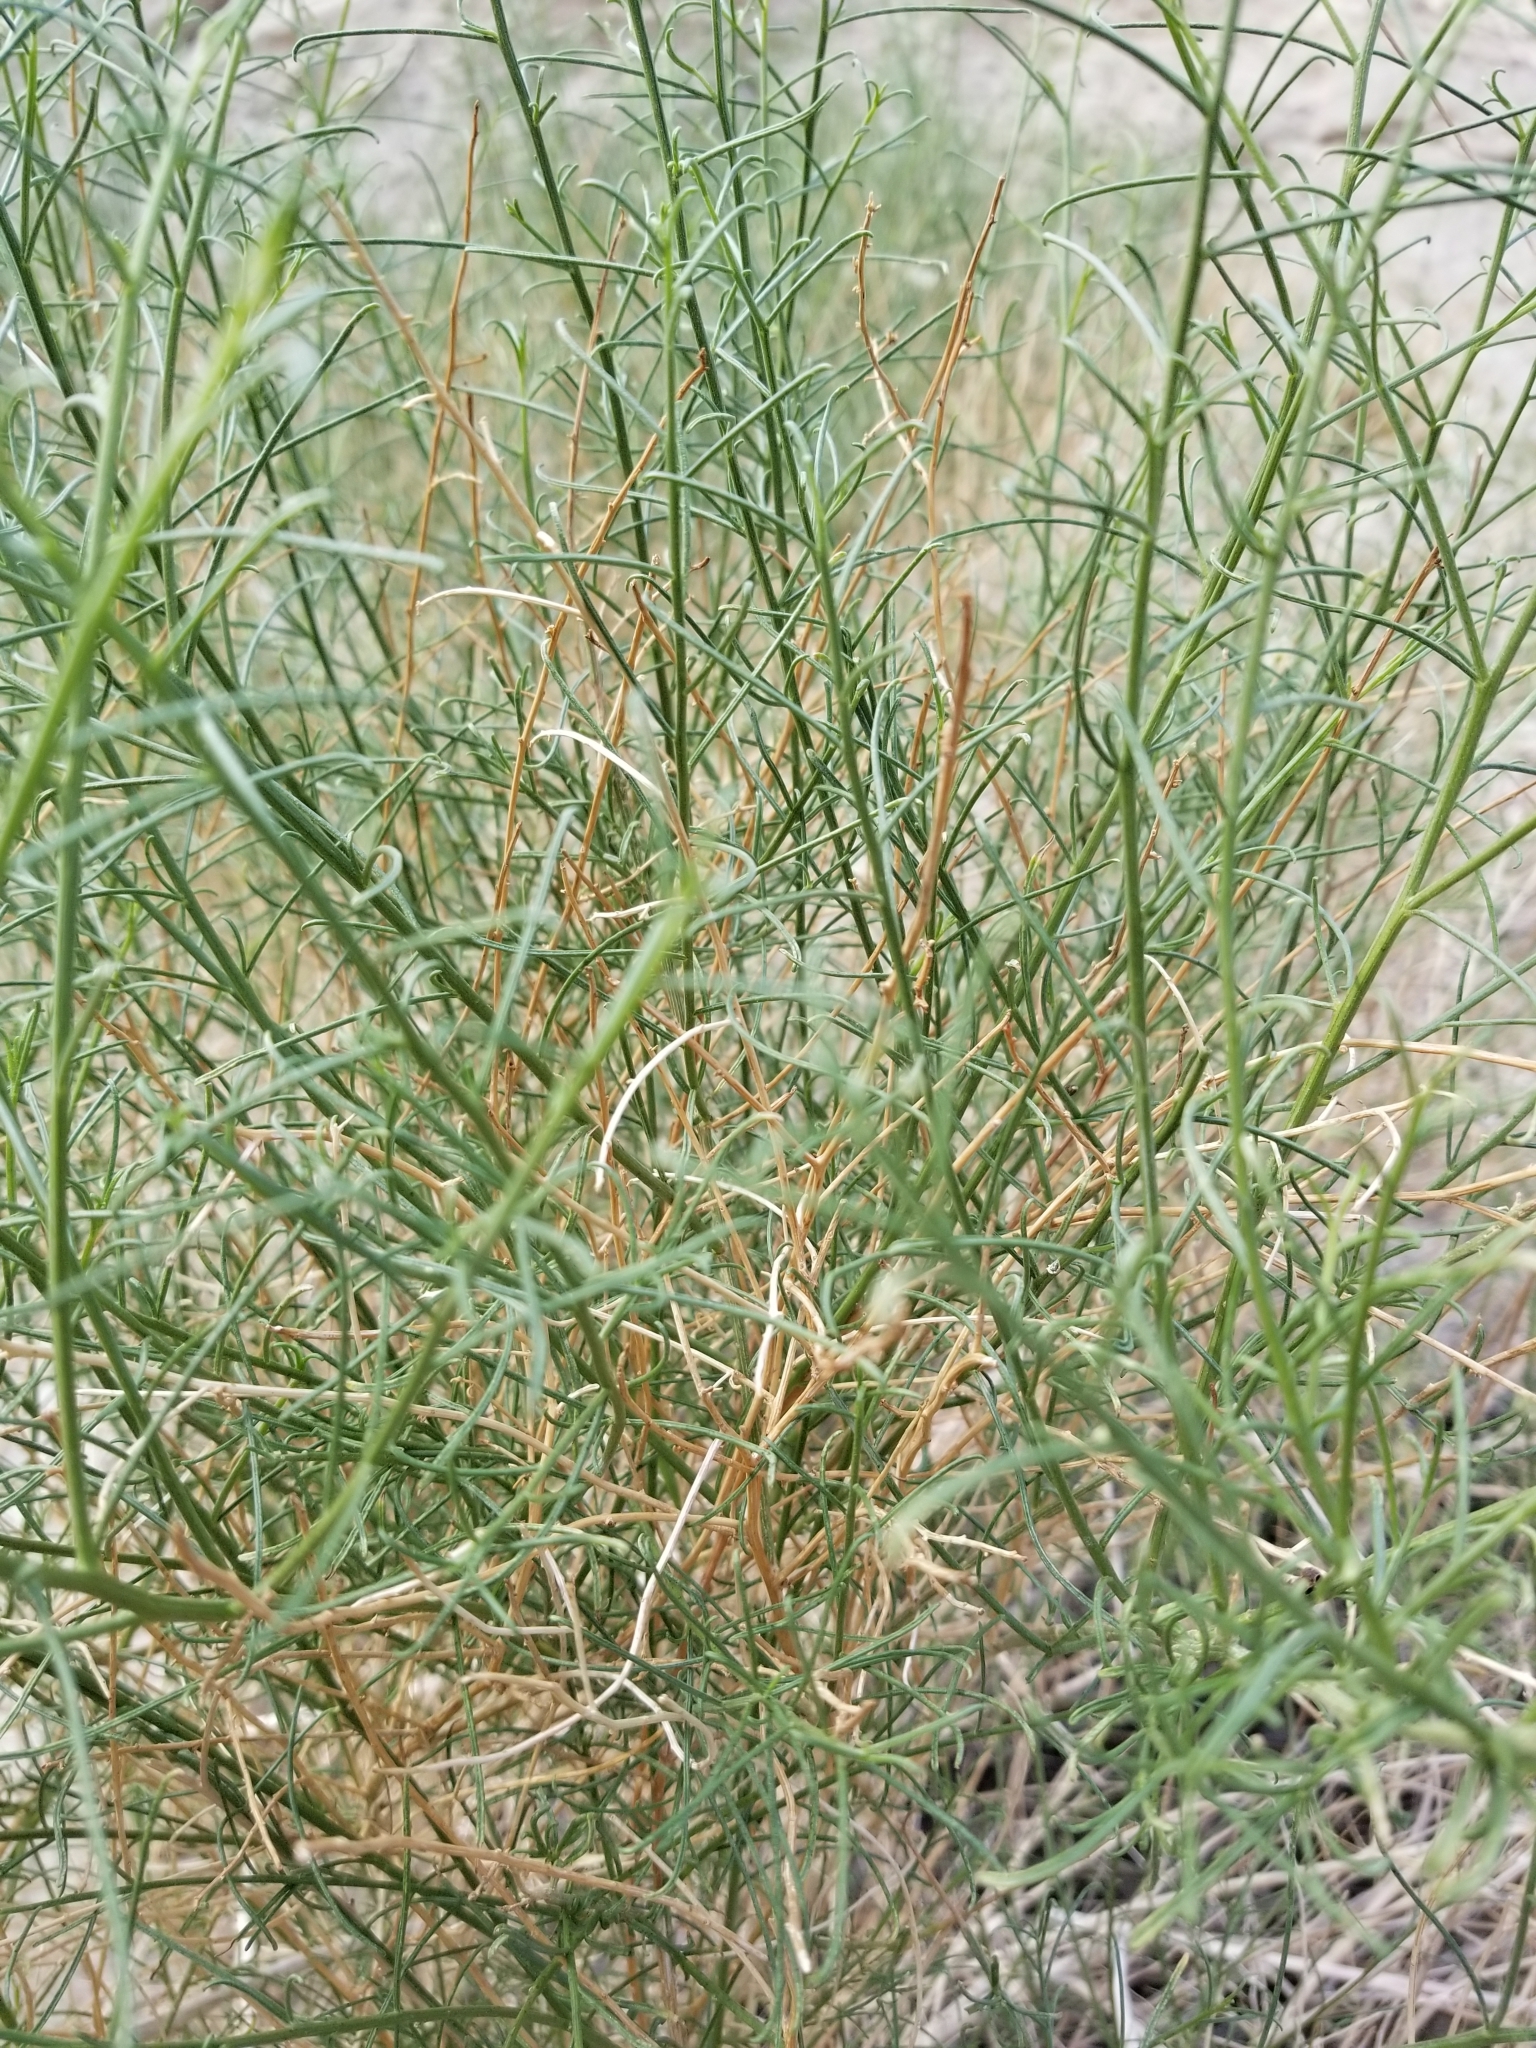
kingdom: Plantae
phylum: Tracheophyta
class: Magnoliopsida
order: Asterales
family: Asteraceae
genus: Ambrosia
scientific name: Ambrosia salsola
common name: Burrobrush
